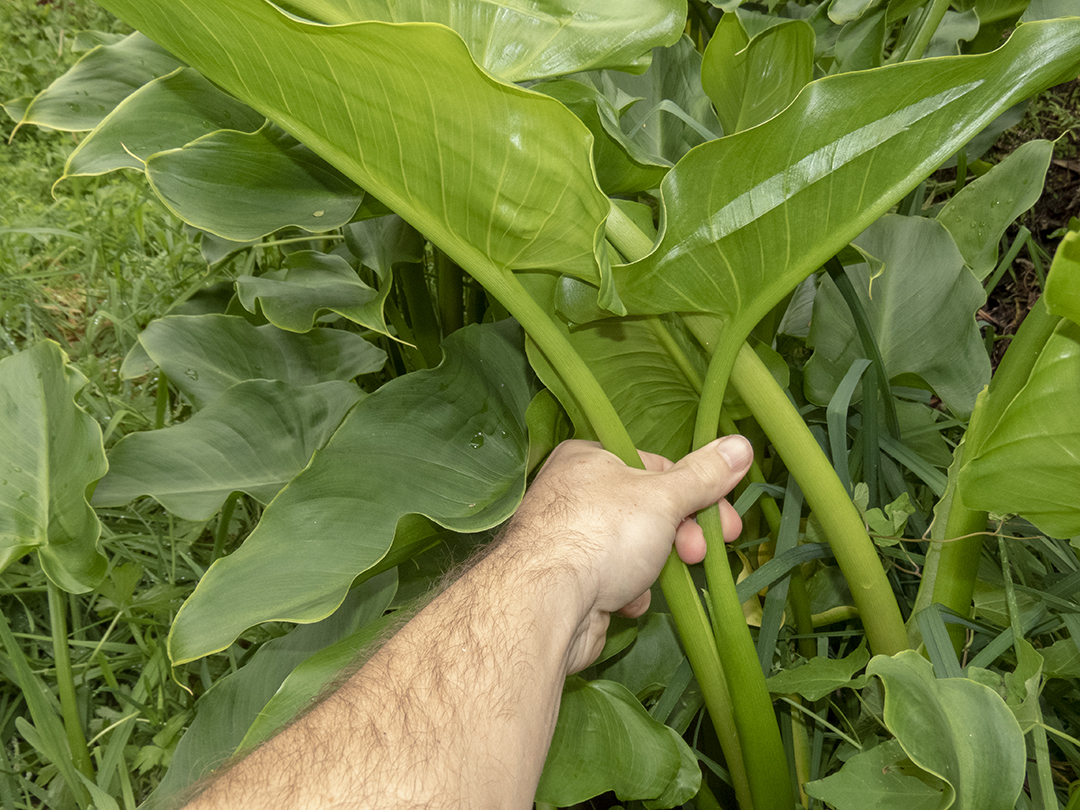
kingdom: Plantae
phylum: Tracheophyta
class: Liliopsida
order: Alismatales
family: Araceae
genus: Zantedeschia
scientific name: Zantedeschia aethiopica
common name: Altar-lily
